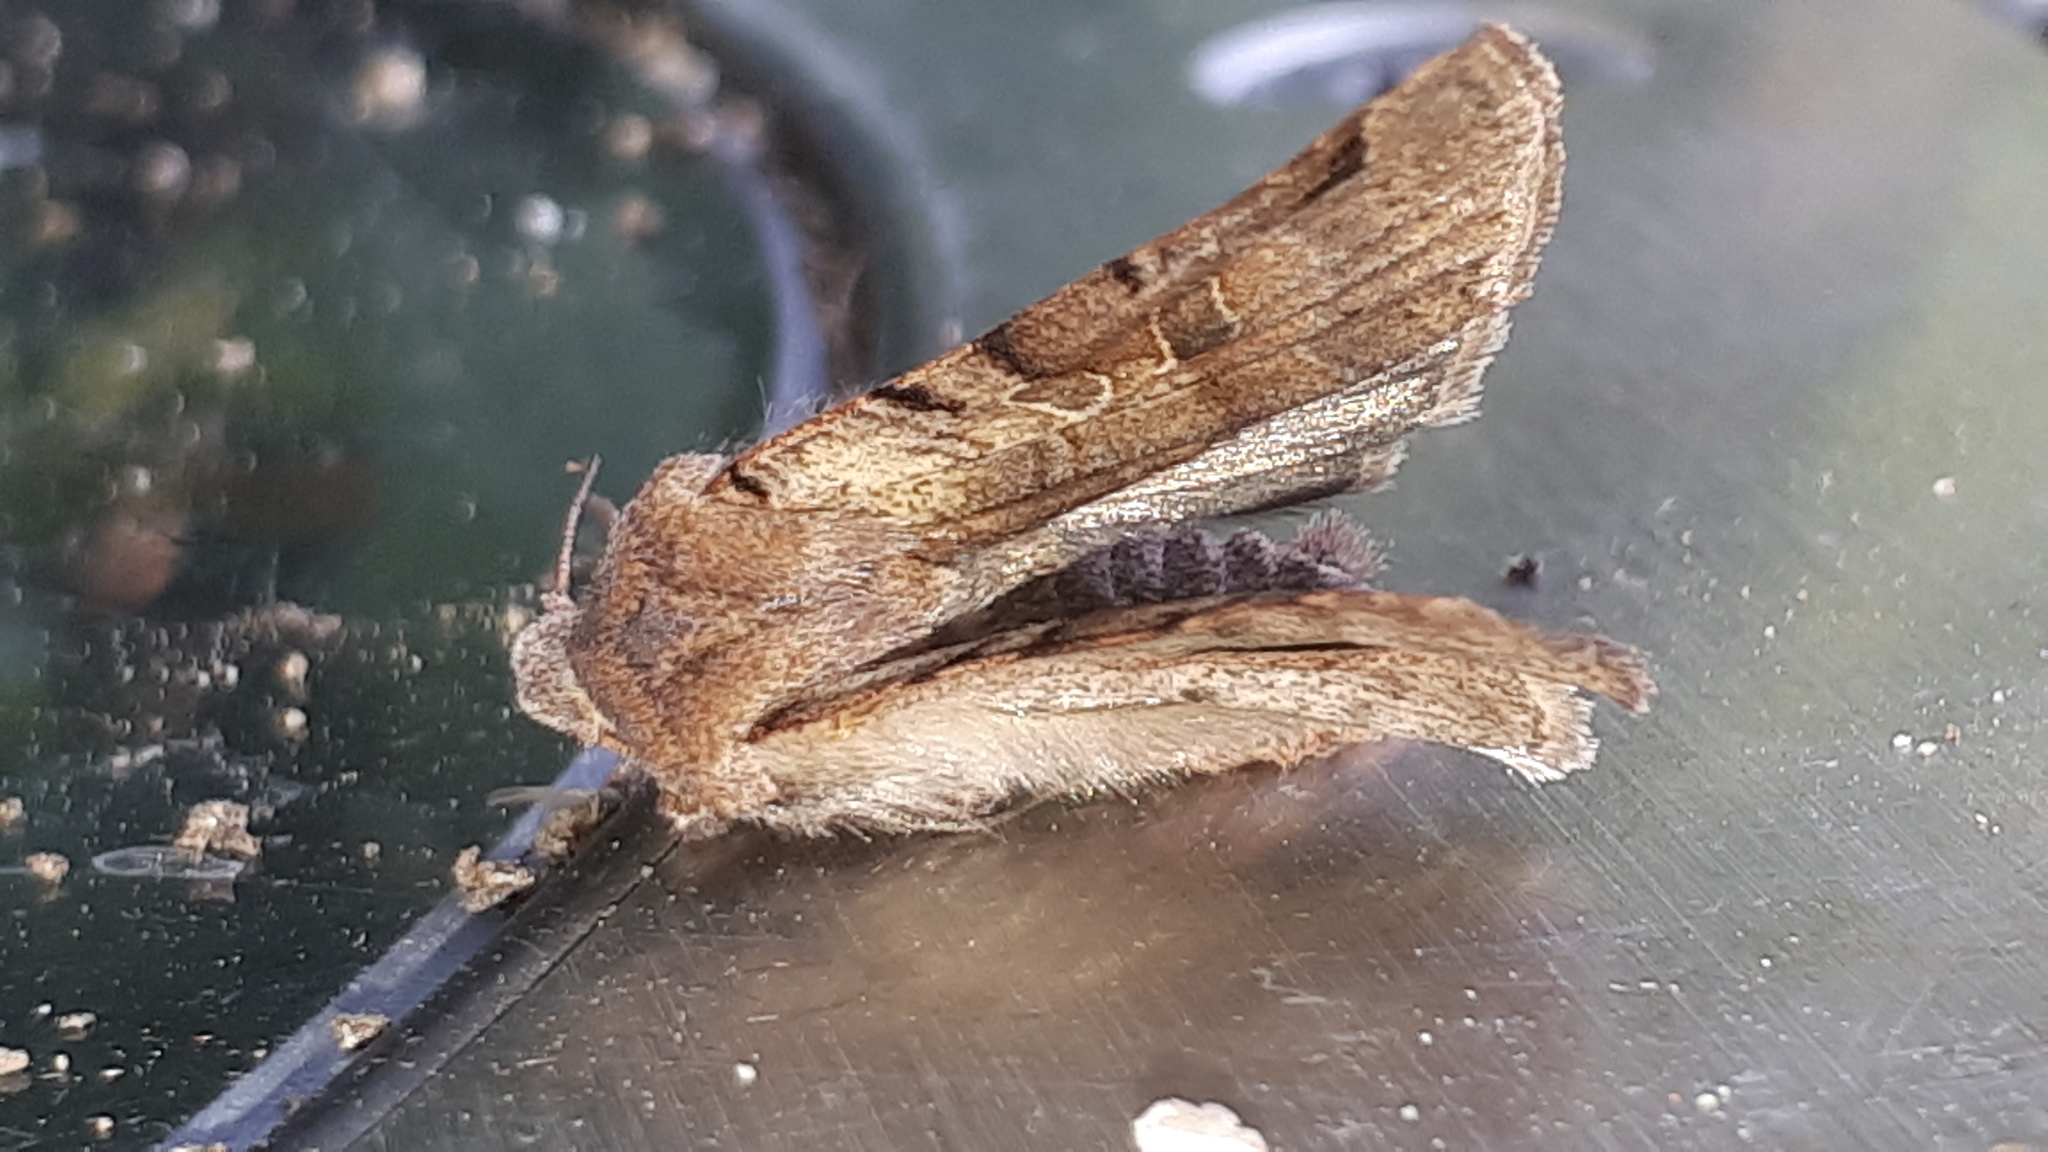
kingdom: Animalia
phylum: Arthropoda
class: Insecta
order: Lepidoptera
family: Noctuidae
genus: Agrochola
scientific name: Agrochola litura
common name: Brown-spot pinion
